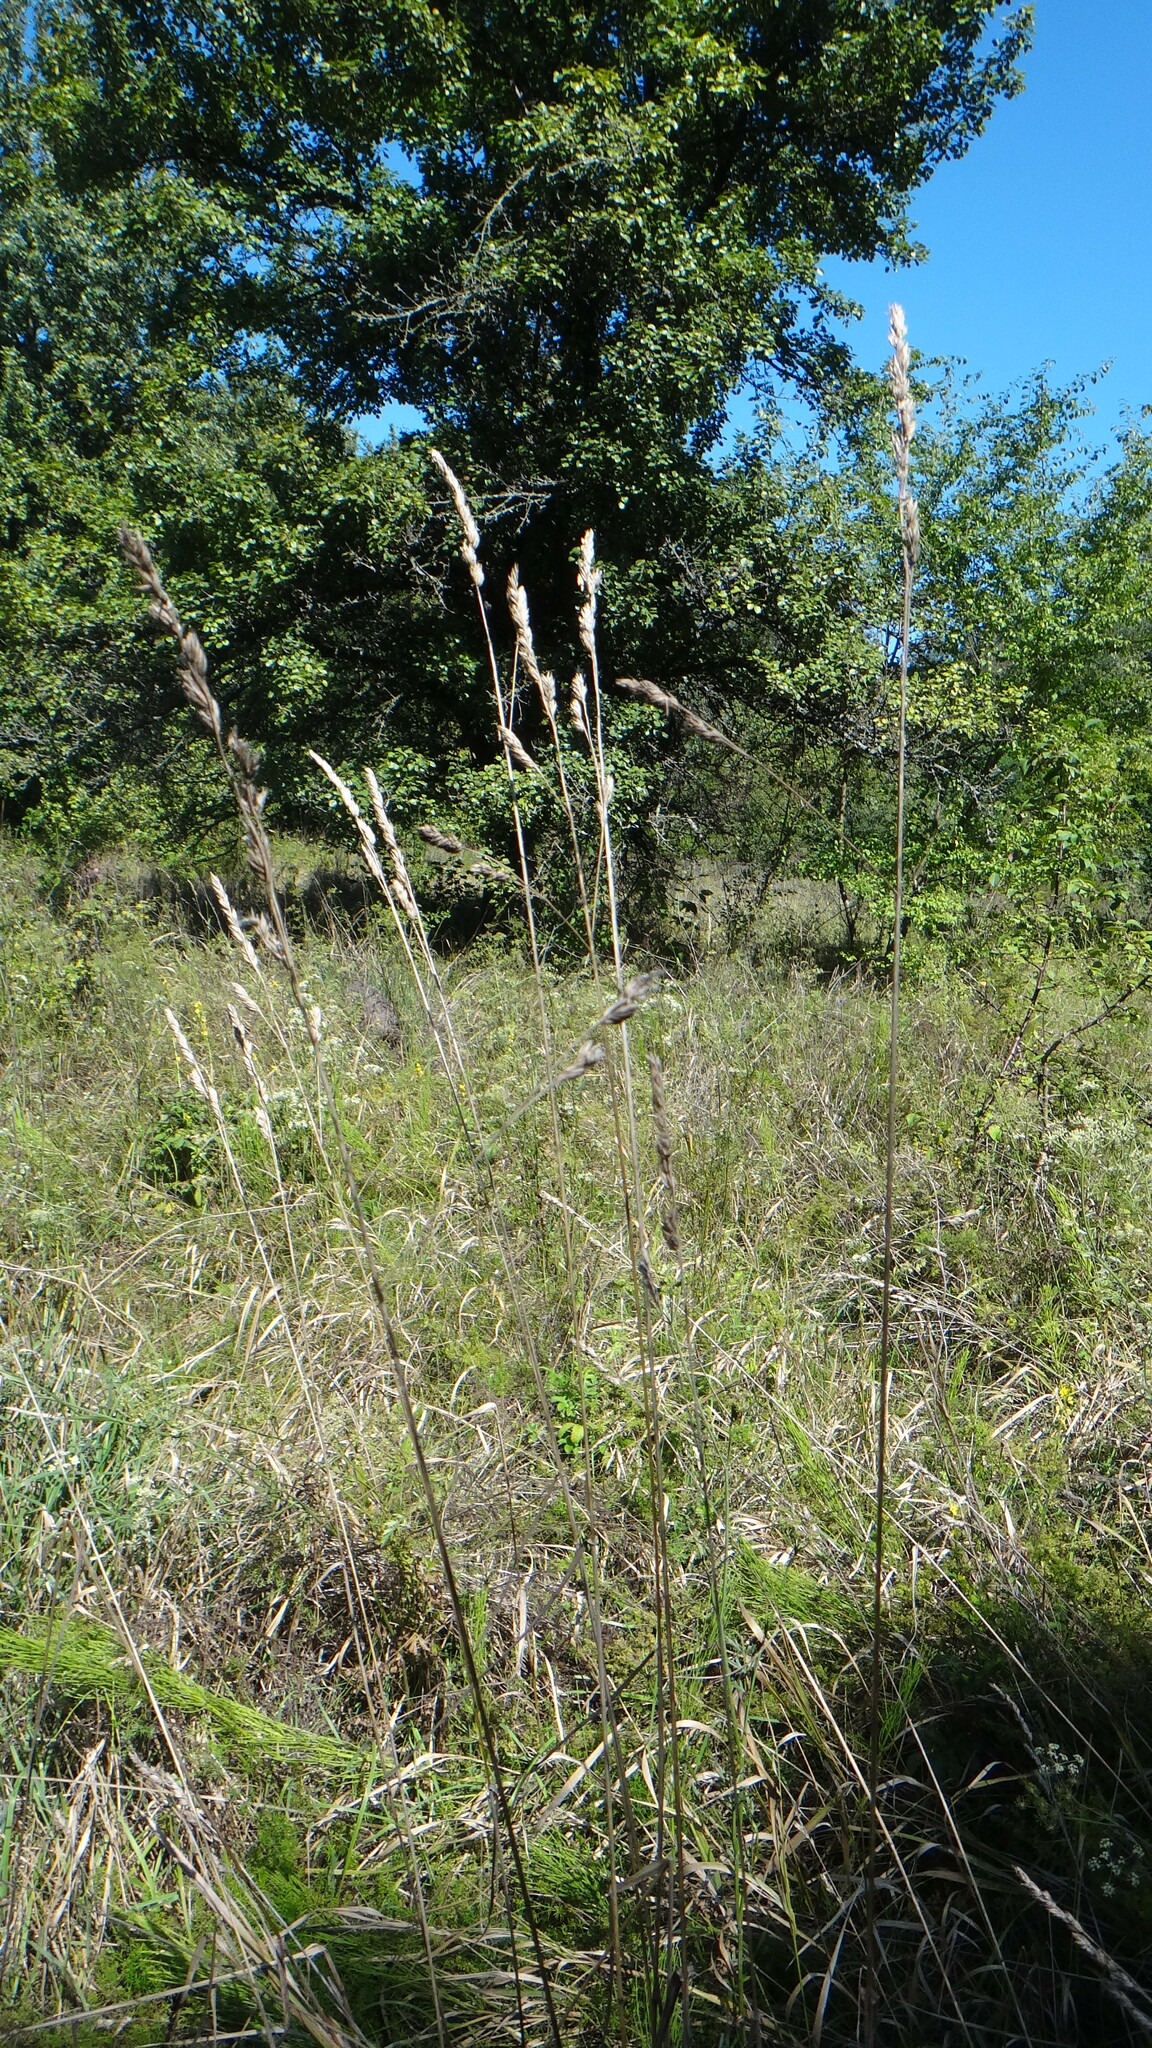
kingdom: Plantae
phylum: Tracheophyta
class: Liliopsida
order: Poales
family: Poaceae
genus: Dactylis
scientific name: Dactylis glomerata
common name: Orchardgrass
